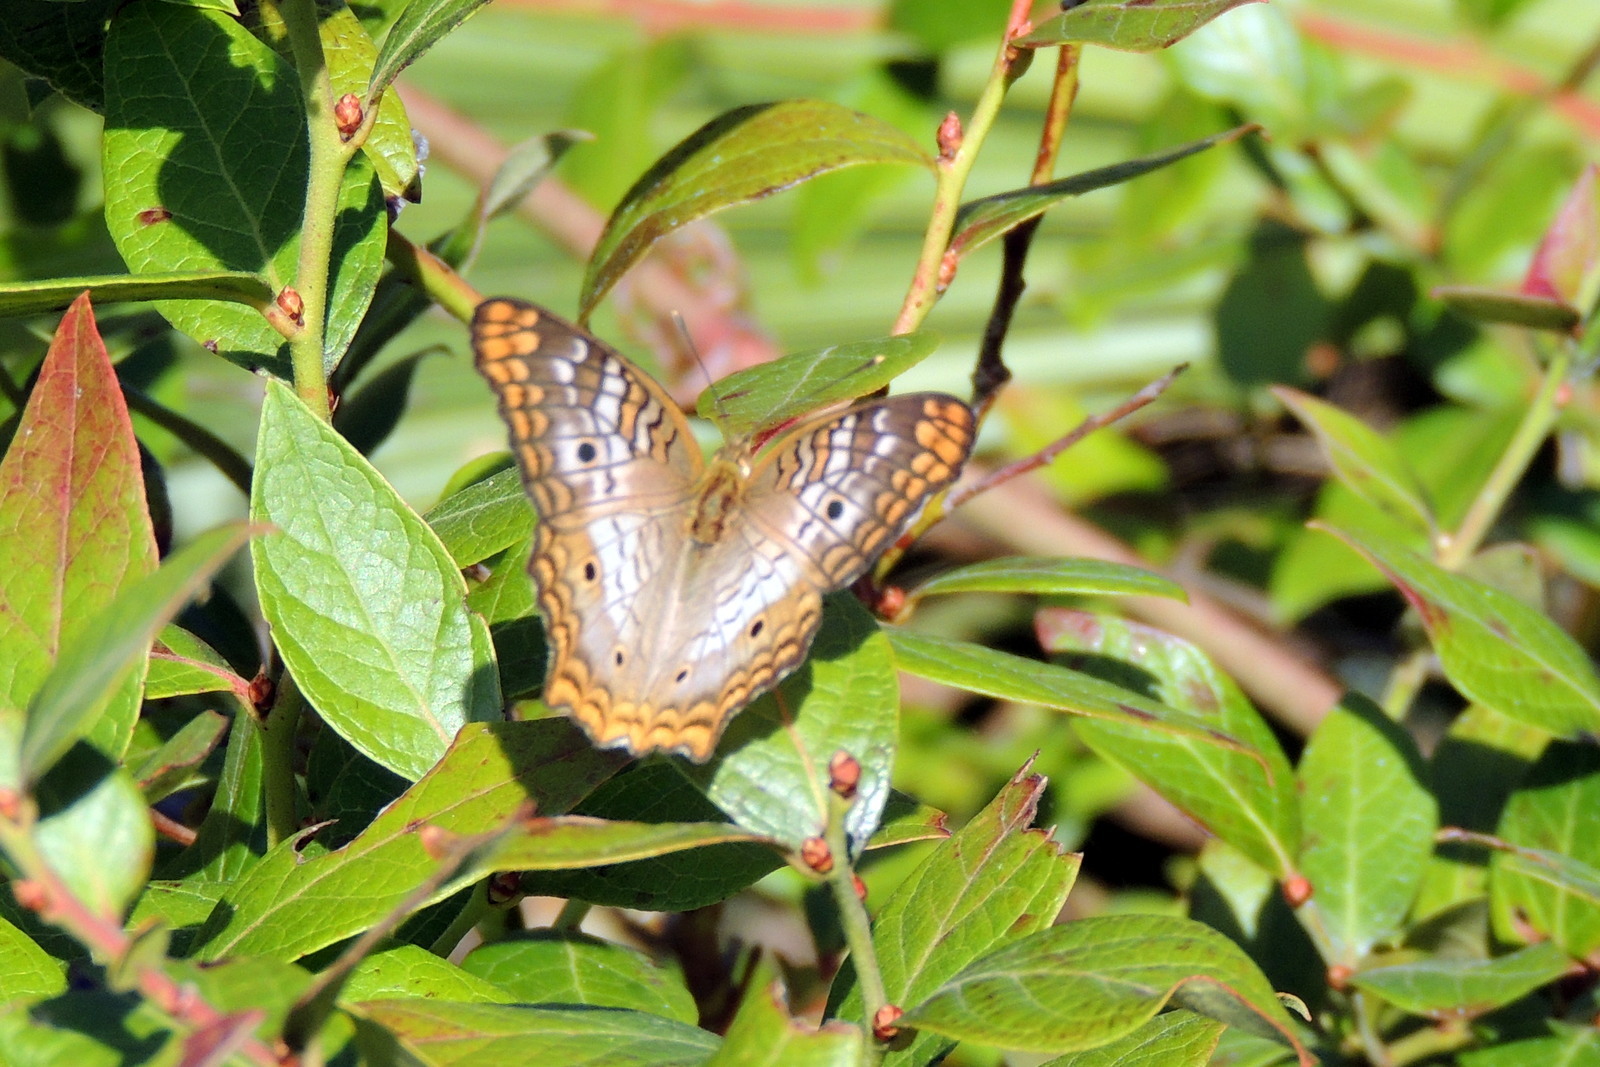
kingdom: Animalia
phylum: Arthropoda
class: Insecta
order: Lepidoptera
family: Nymphalidae
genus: Anartia
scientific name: Anartia jatrophae
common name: White peacock
